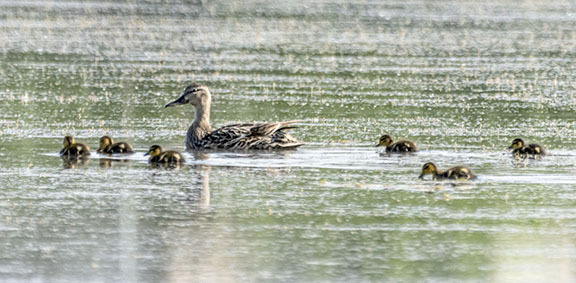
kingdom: Animalia
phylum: Chordata
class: Aves
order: Anseriformes
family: Anatidae
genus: Anas
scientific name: Anas platyrhynchos
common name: Mallard
